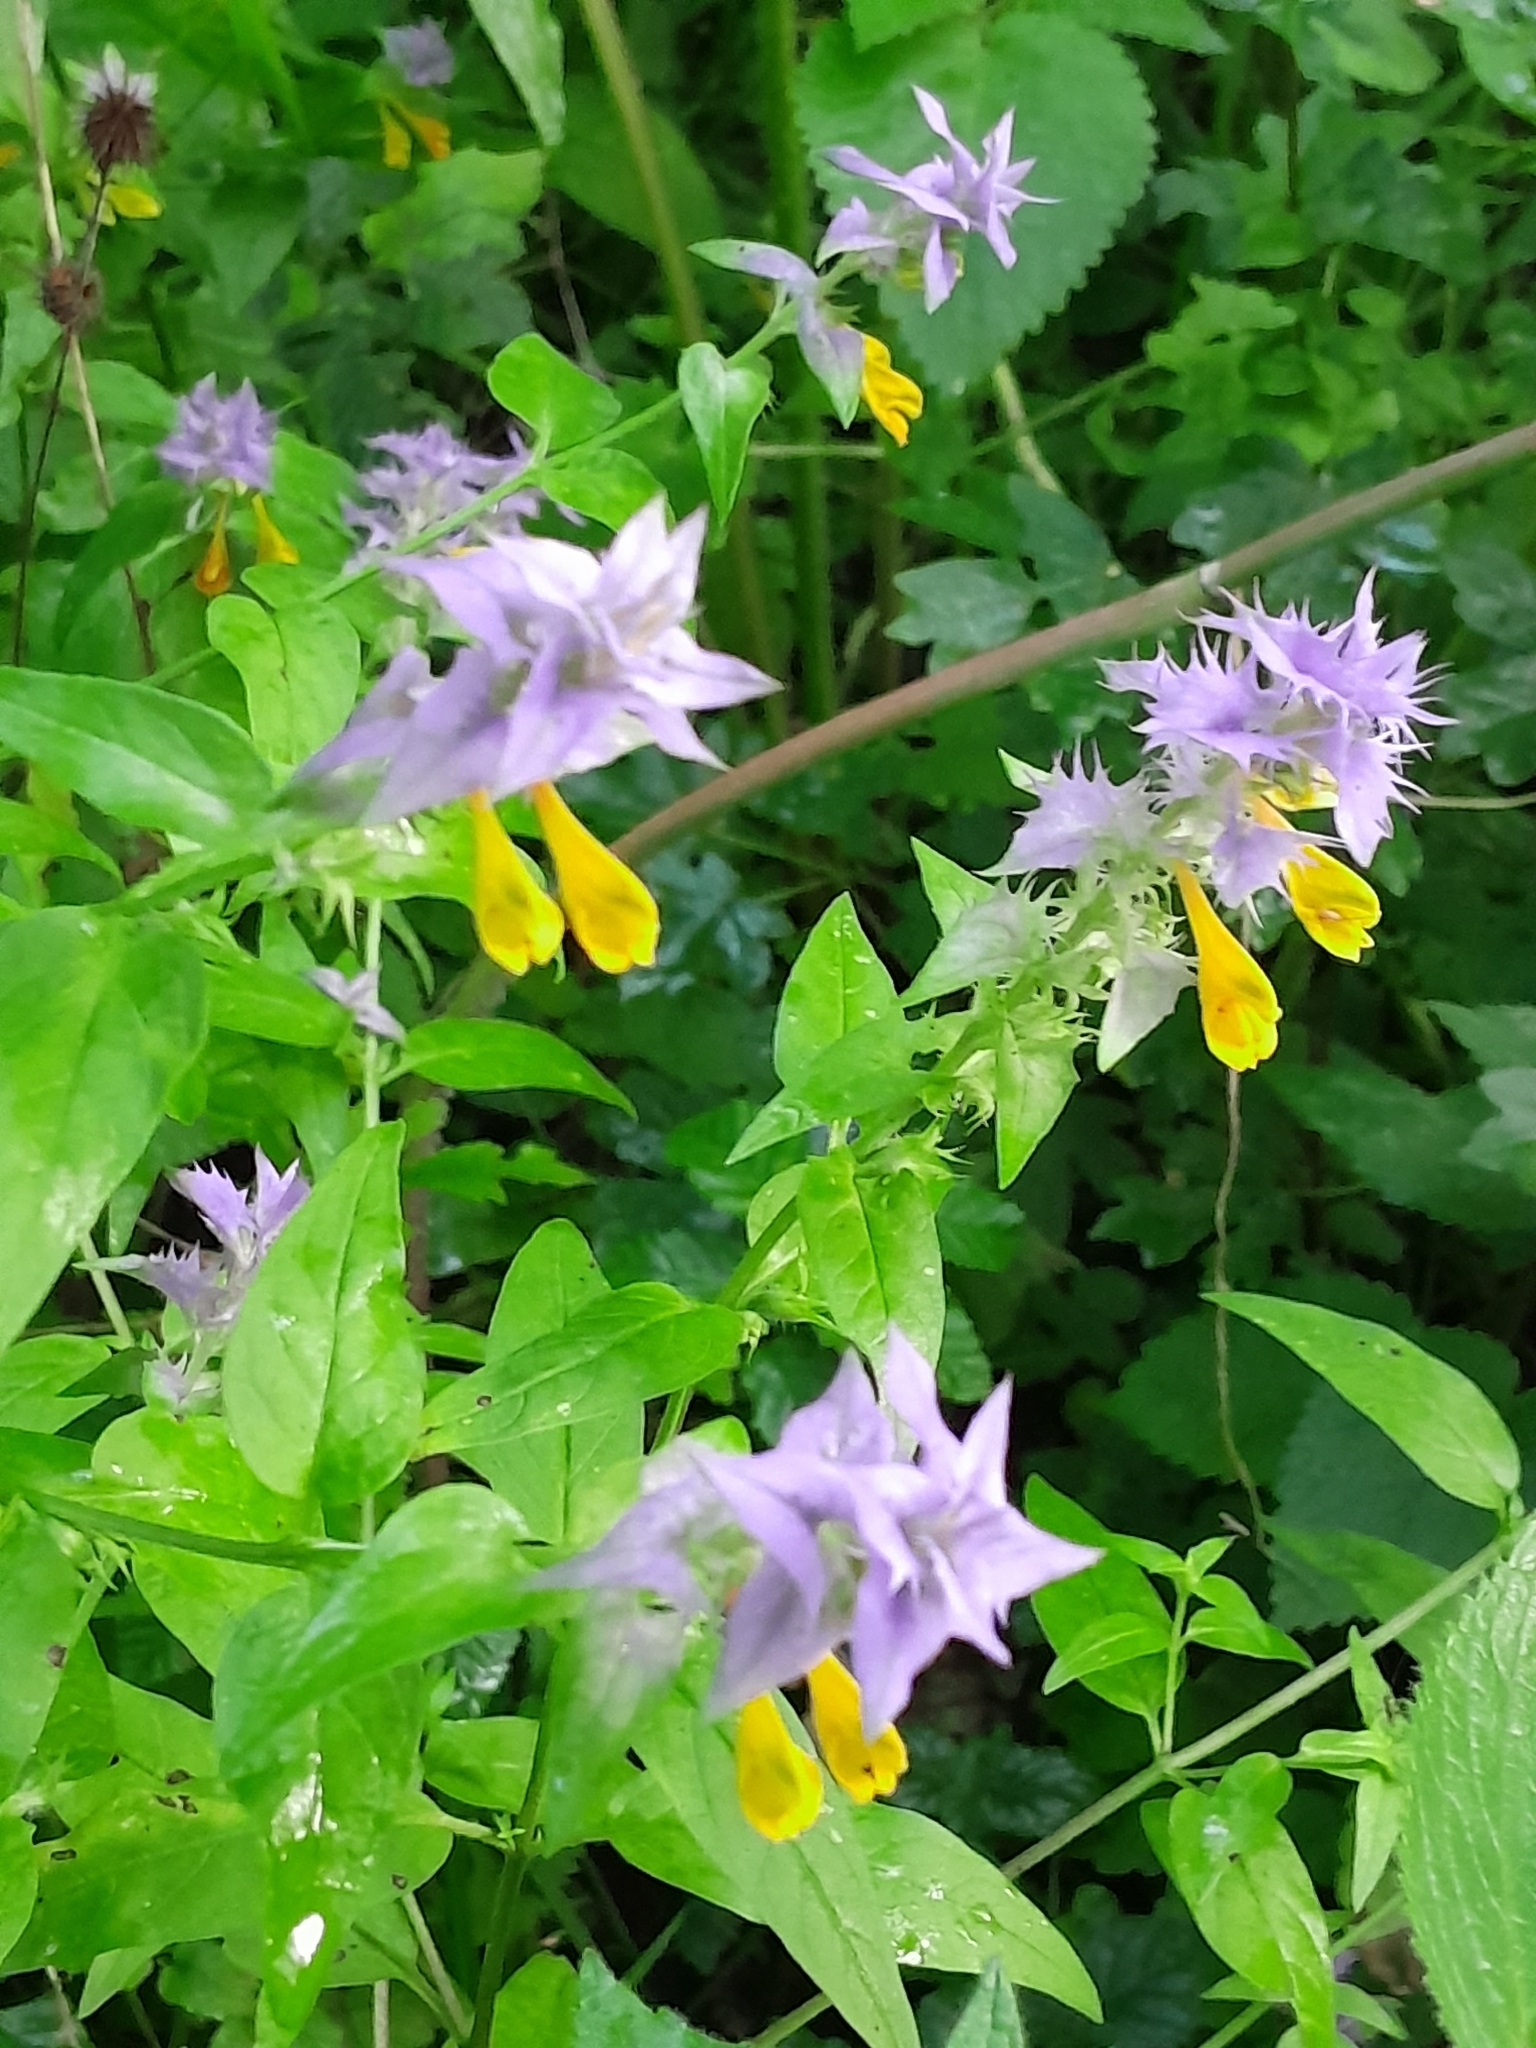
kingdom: Plantae
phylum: Tracheophyta
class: Magnoliopsida
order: Lamiales
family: Orobanchaceae
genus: Melampyrum
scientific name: Melampyrum nemorosum
